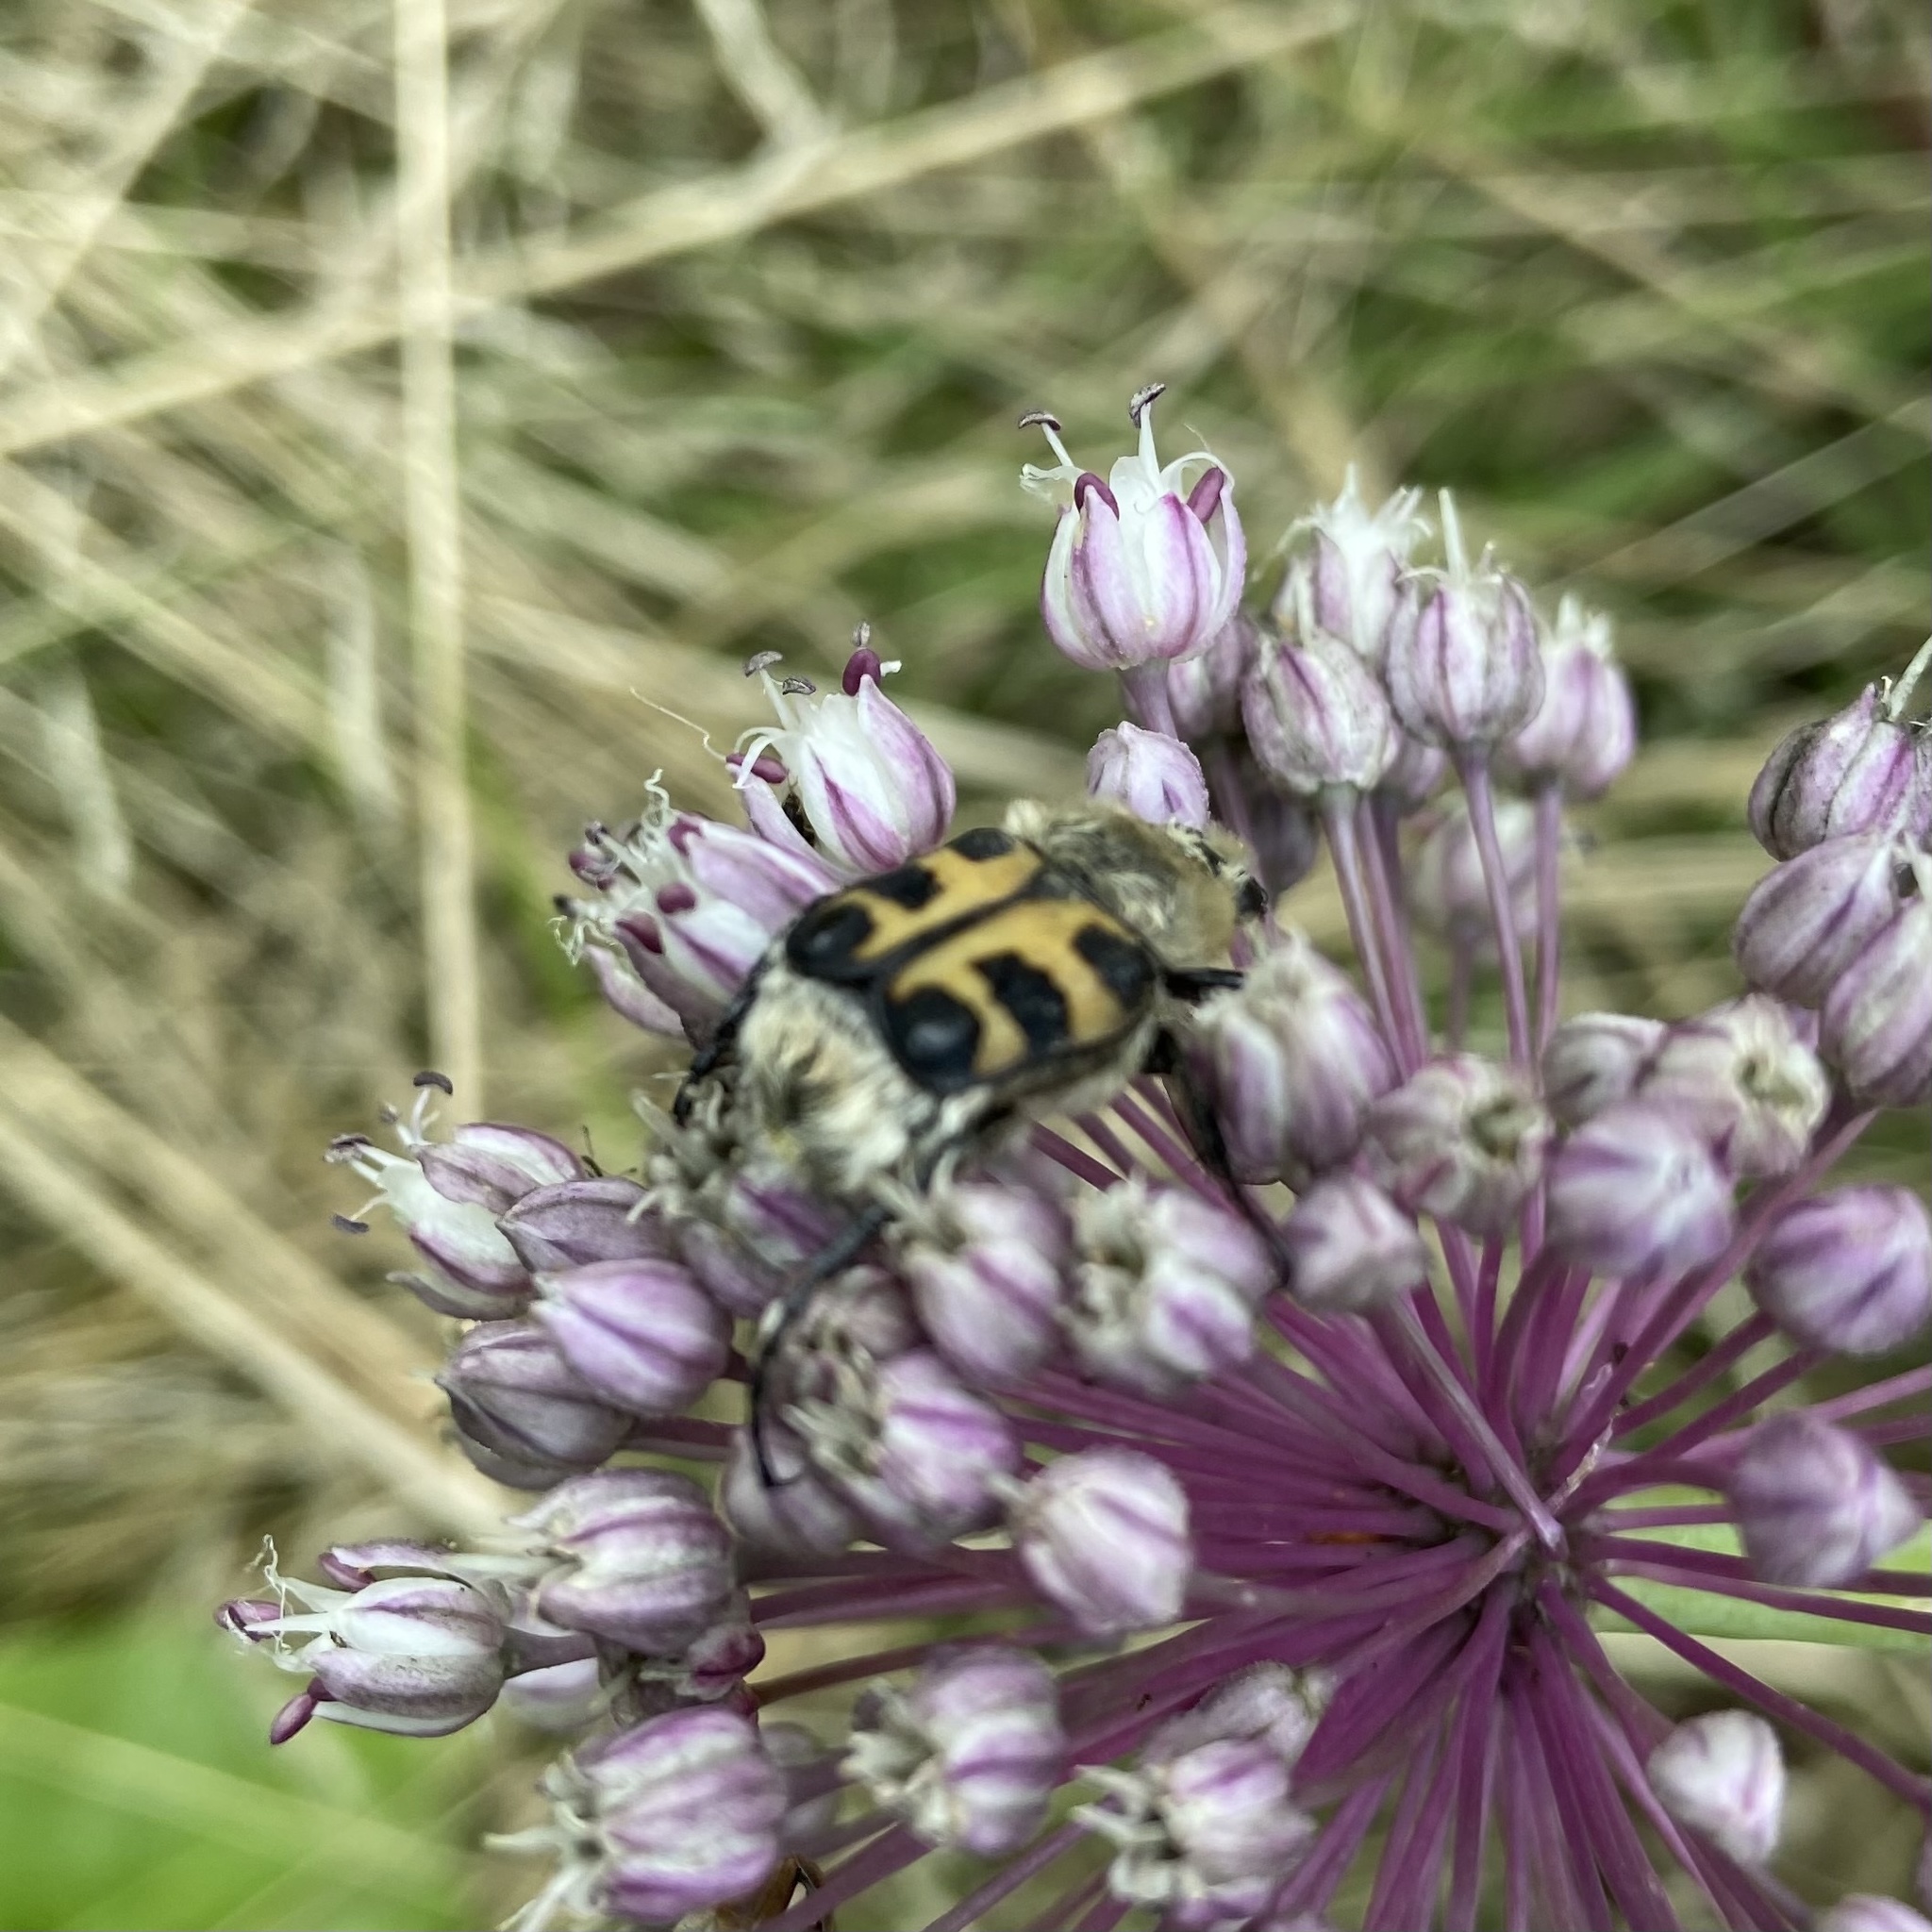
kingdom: Animalia
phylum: Arthropoda
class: Insecta
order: Coleoptera
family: Scarabaeidae
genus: Trichius
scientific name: Trichius gallicus
